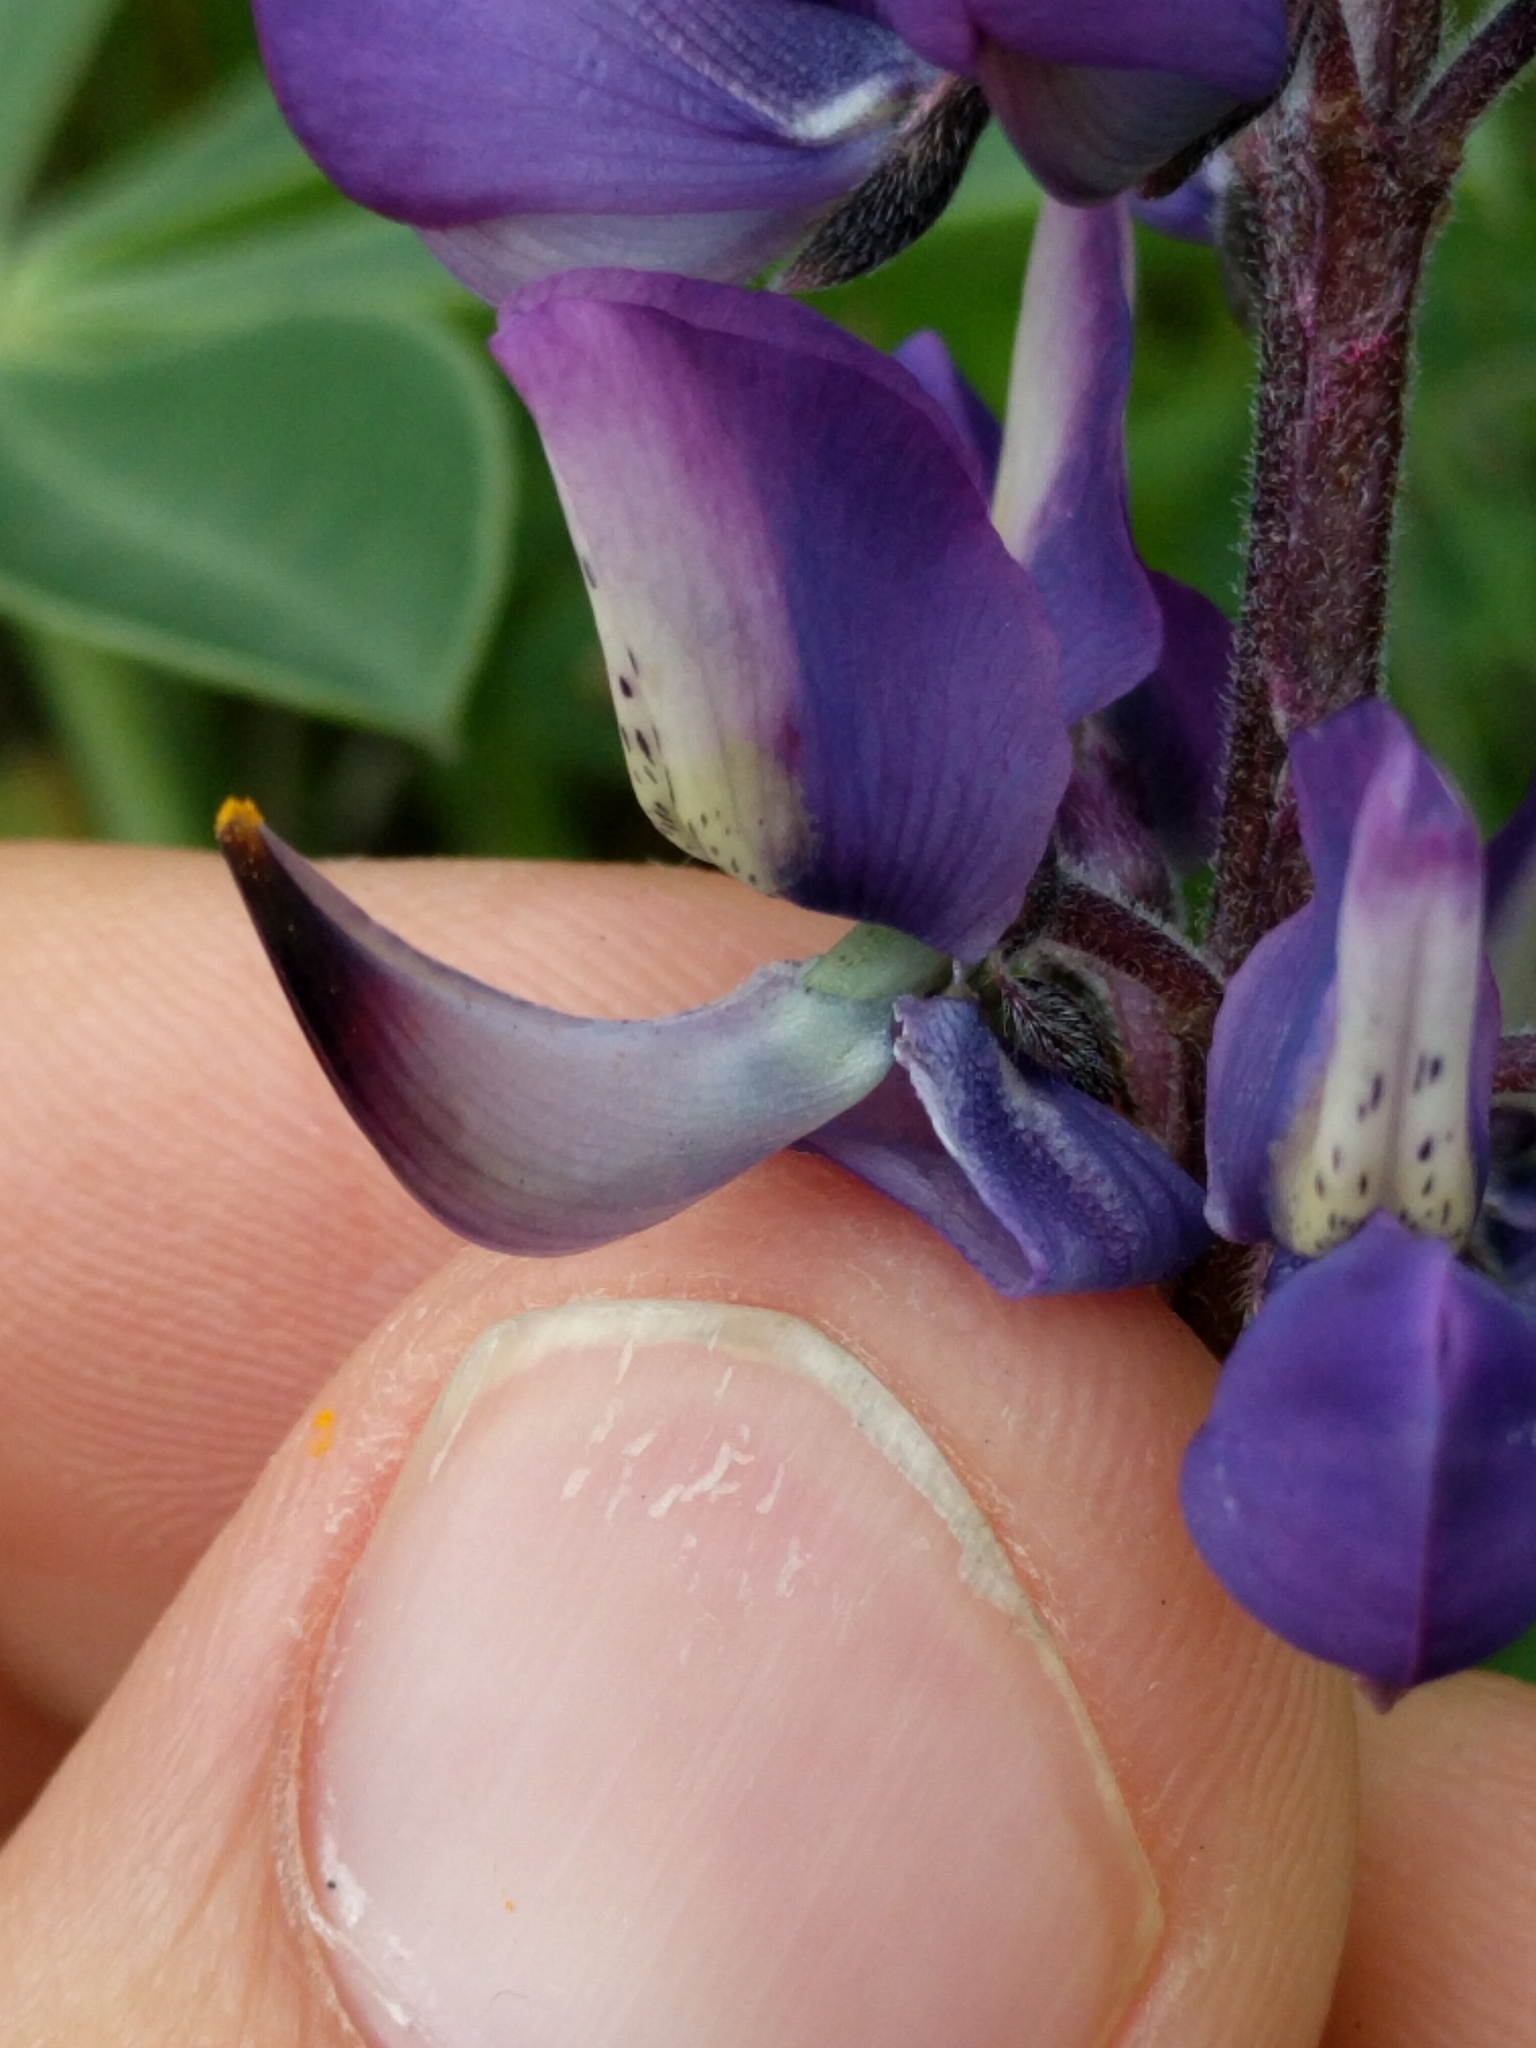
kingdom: Plantae
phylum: Tracheophyta
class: Magnoliopsida
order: Fabales
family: Fabaceae
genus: Lupinus
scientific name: Lupinus succulentus
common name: Arroyo lupine
